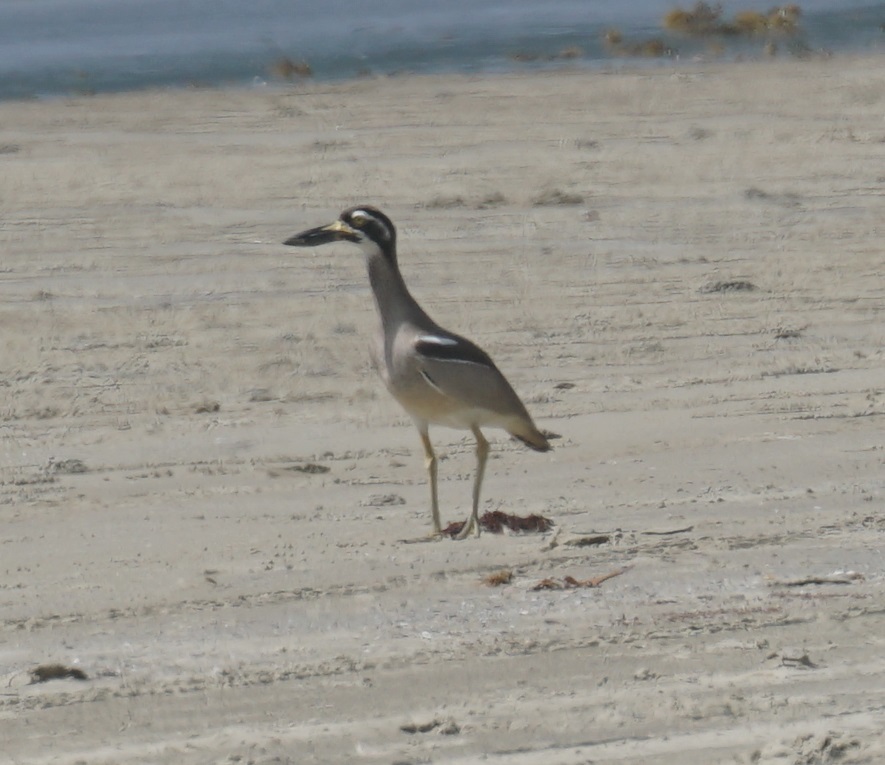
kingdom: Animalia
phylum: Chordata
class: Aves
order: Charadriiformes
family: Burhinidae
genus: Esacus
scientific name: Esacus magnirostris
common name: Beach stone-curlew
